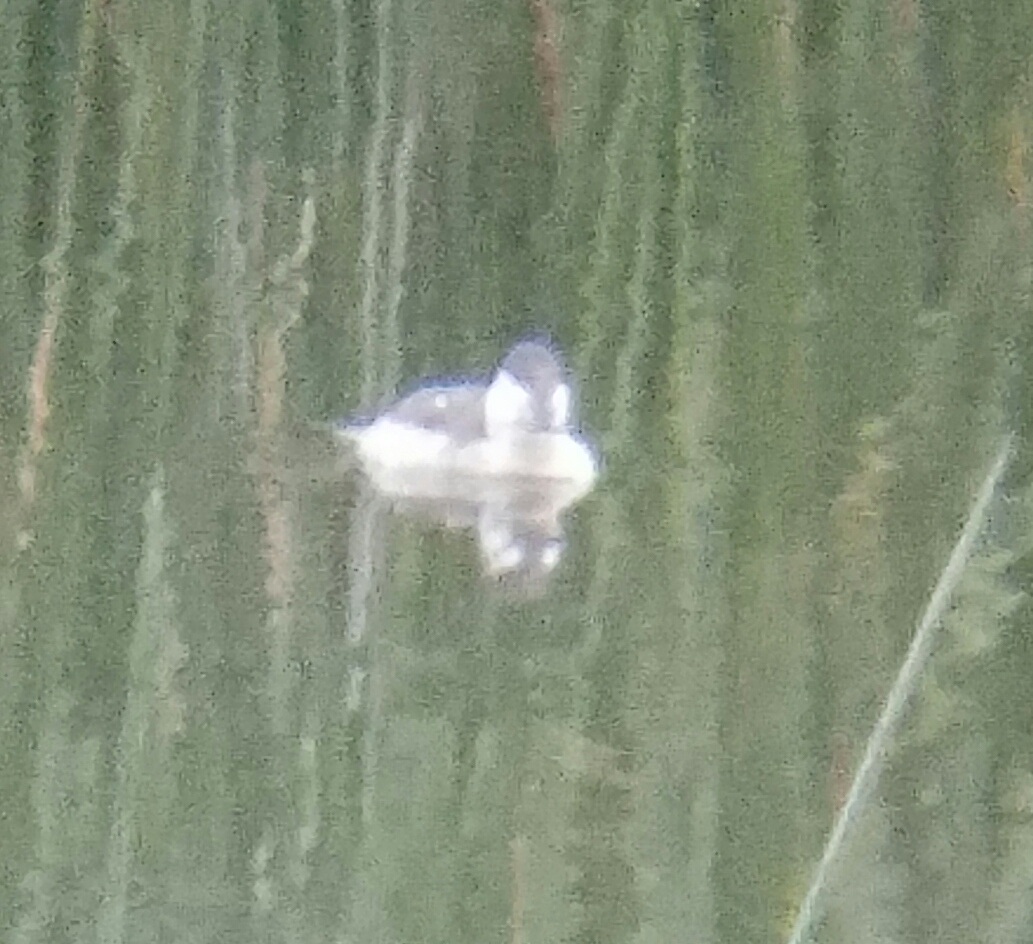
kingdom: Animalia
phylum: Chordata
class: Aves
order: Anseriformes
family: Anatidae
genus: Oxyura
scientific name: Oxyura jamaicensis
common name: Ruddy duck
